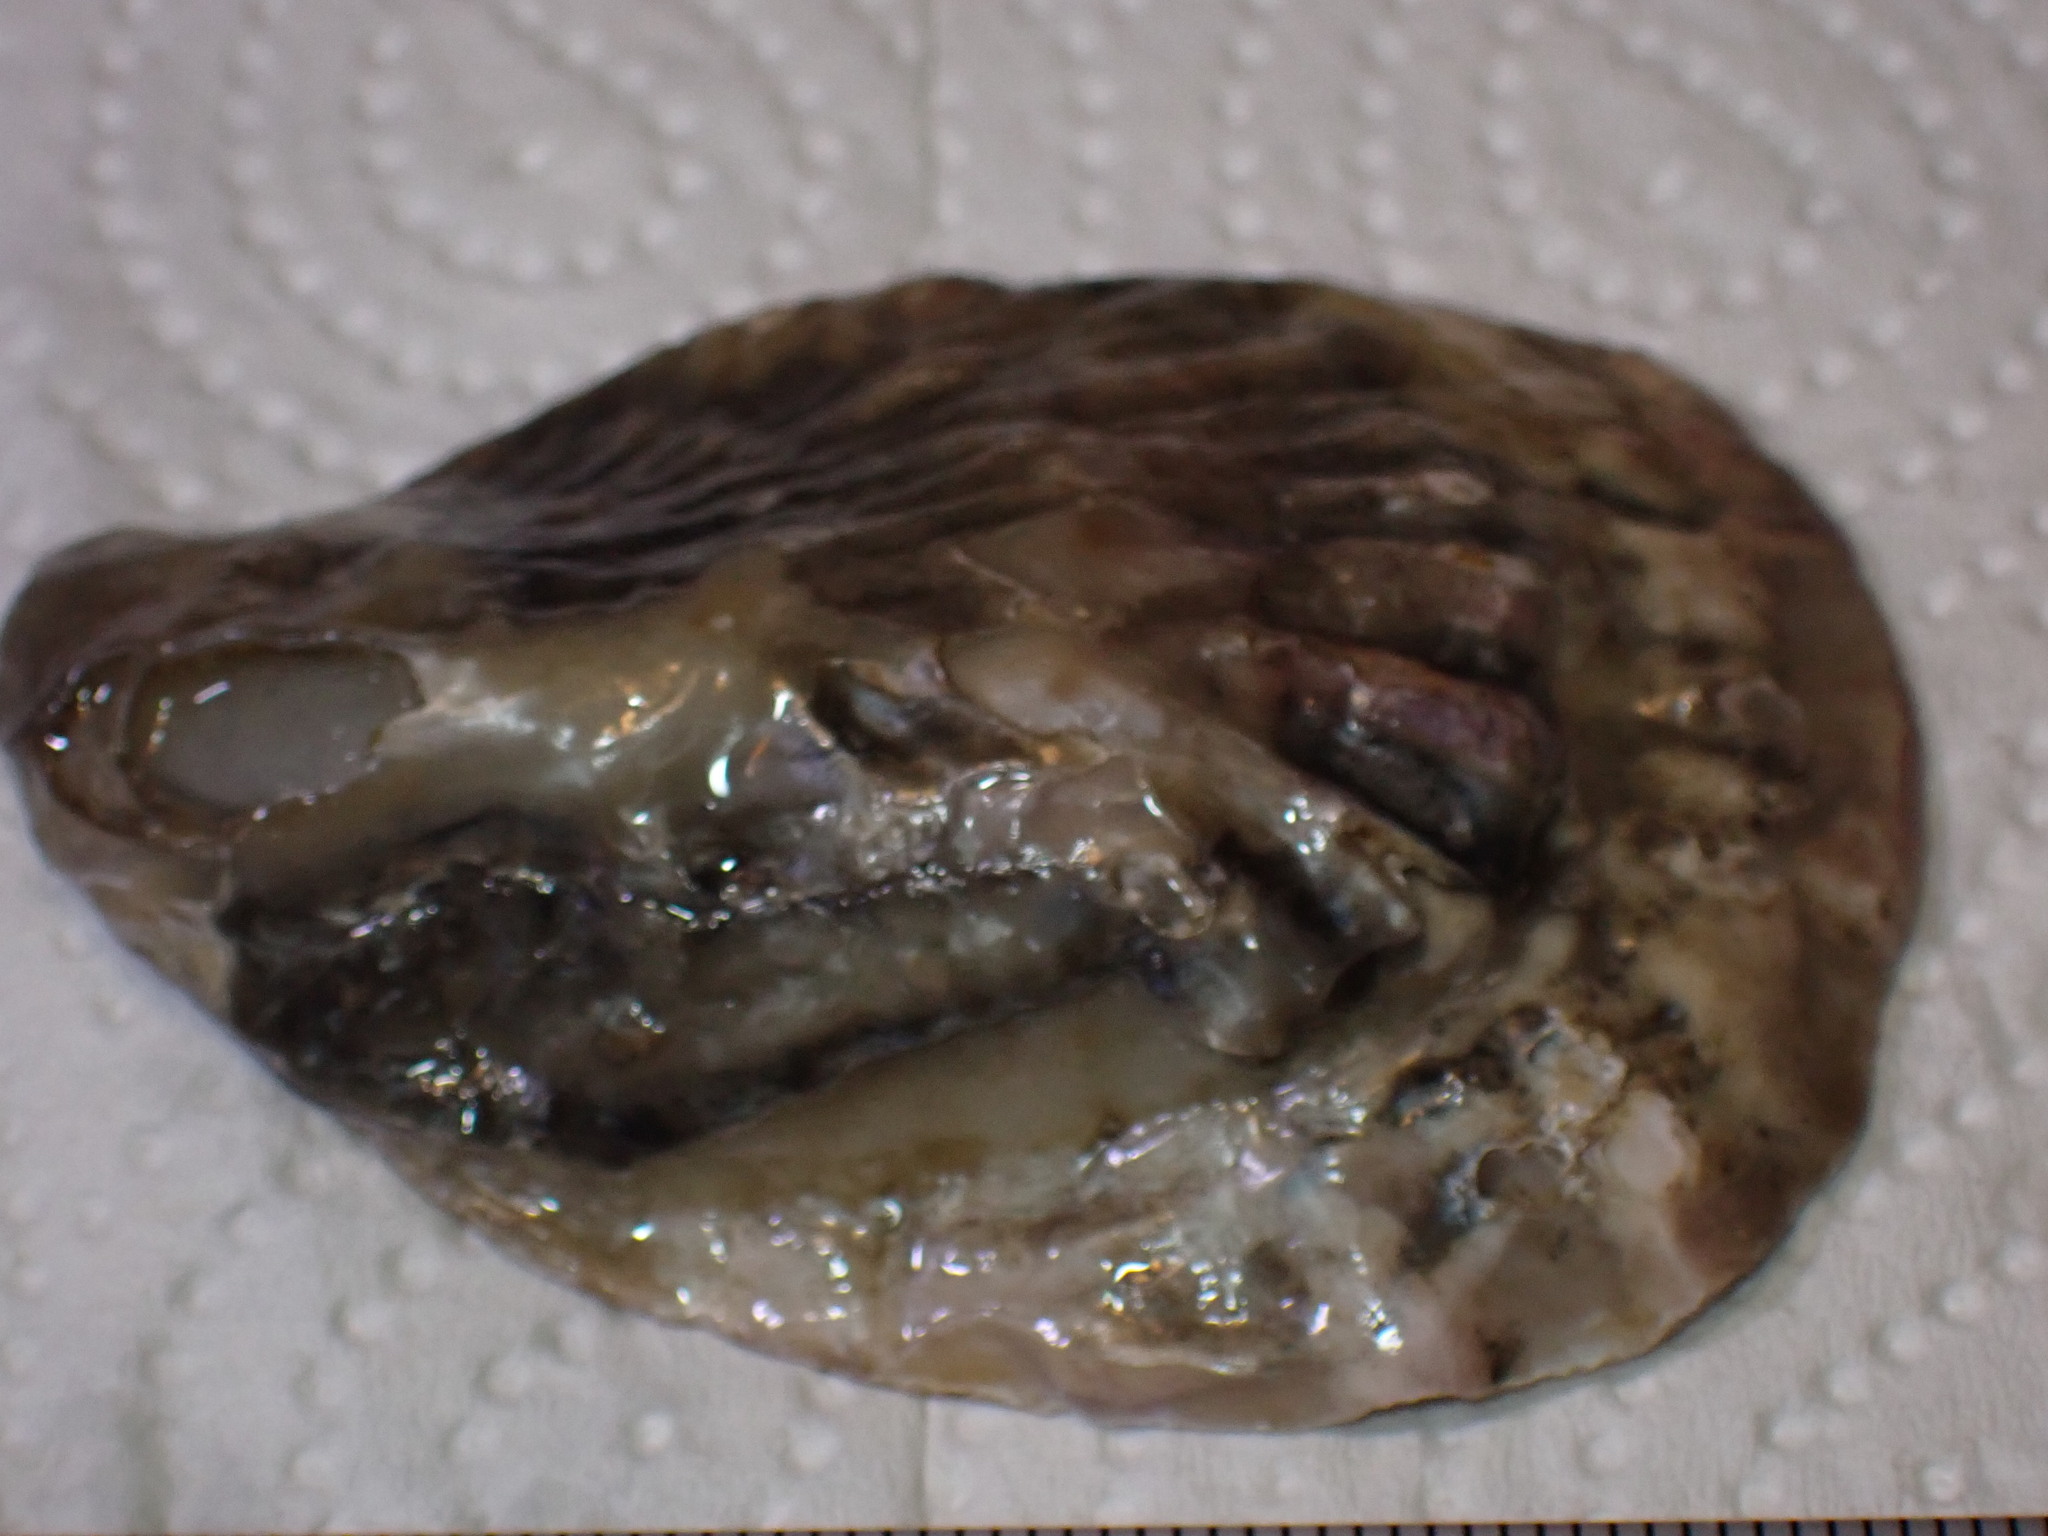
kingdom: Animalia
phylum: Mollusca
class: Bivalvia
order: Ostreida
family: Ostreidae
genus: Ostrea
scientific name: Ostrea edulis
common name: Flat oyster
